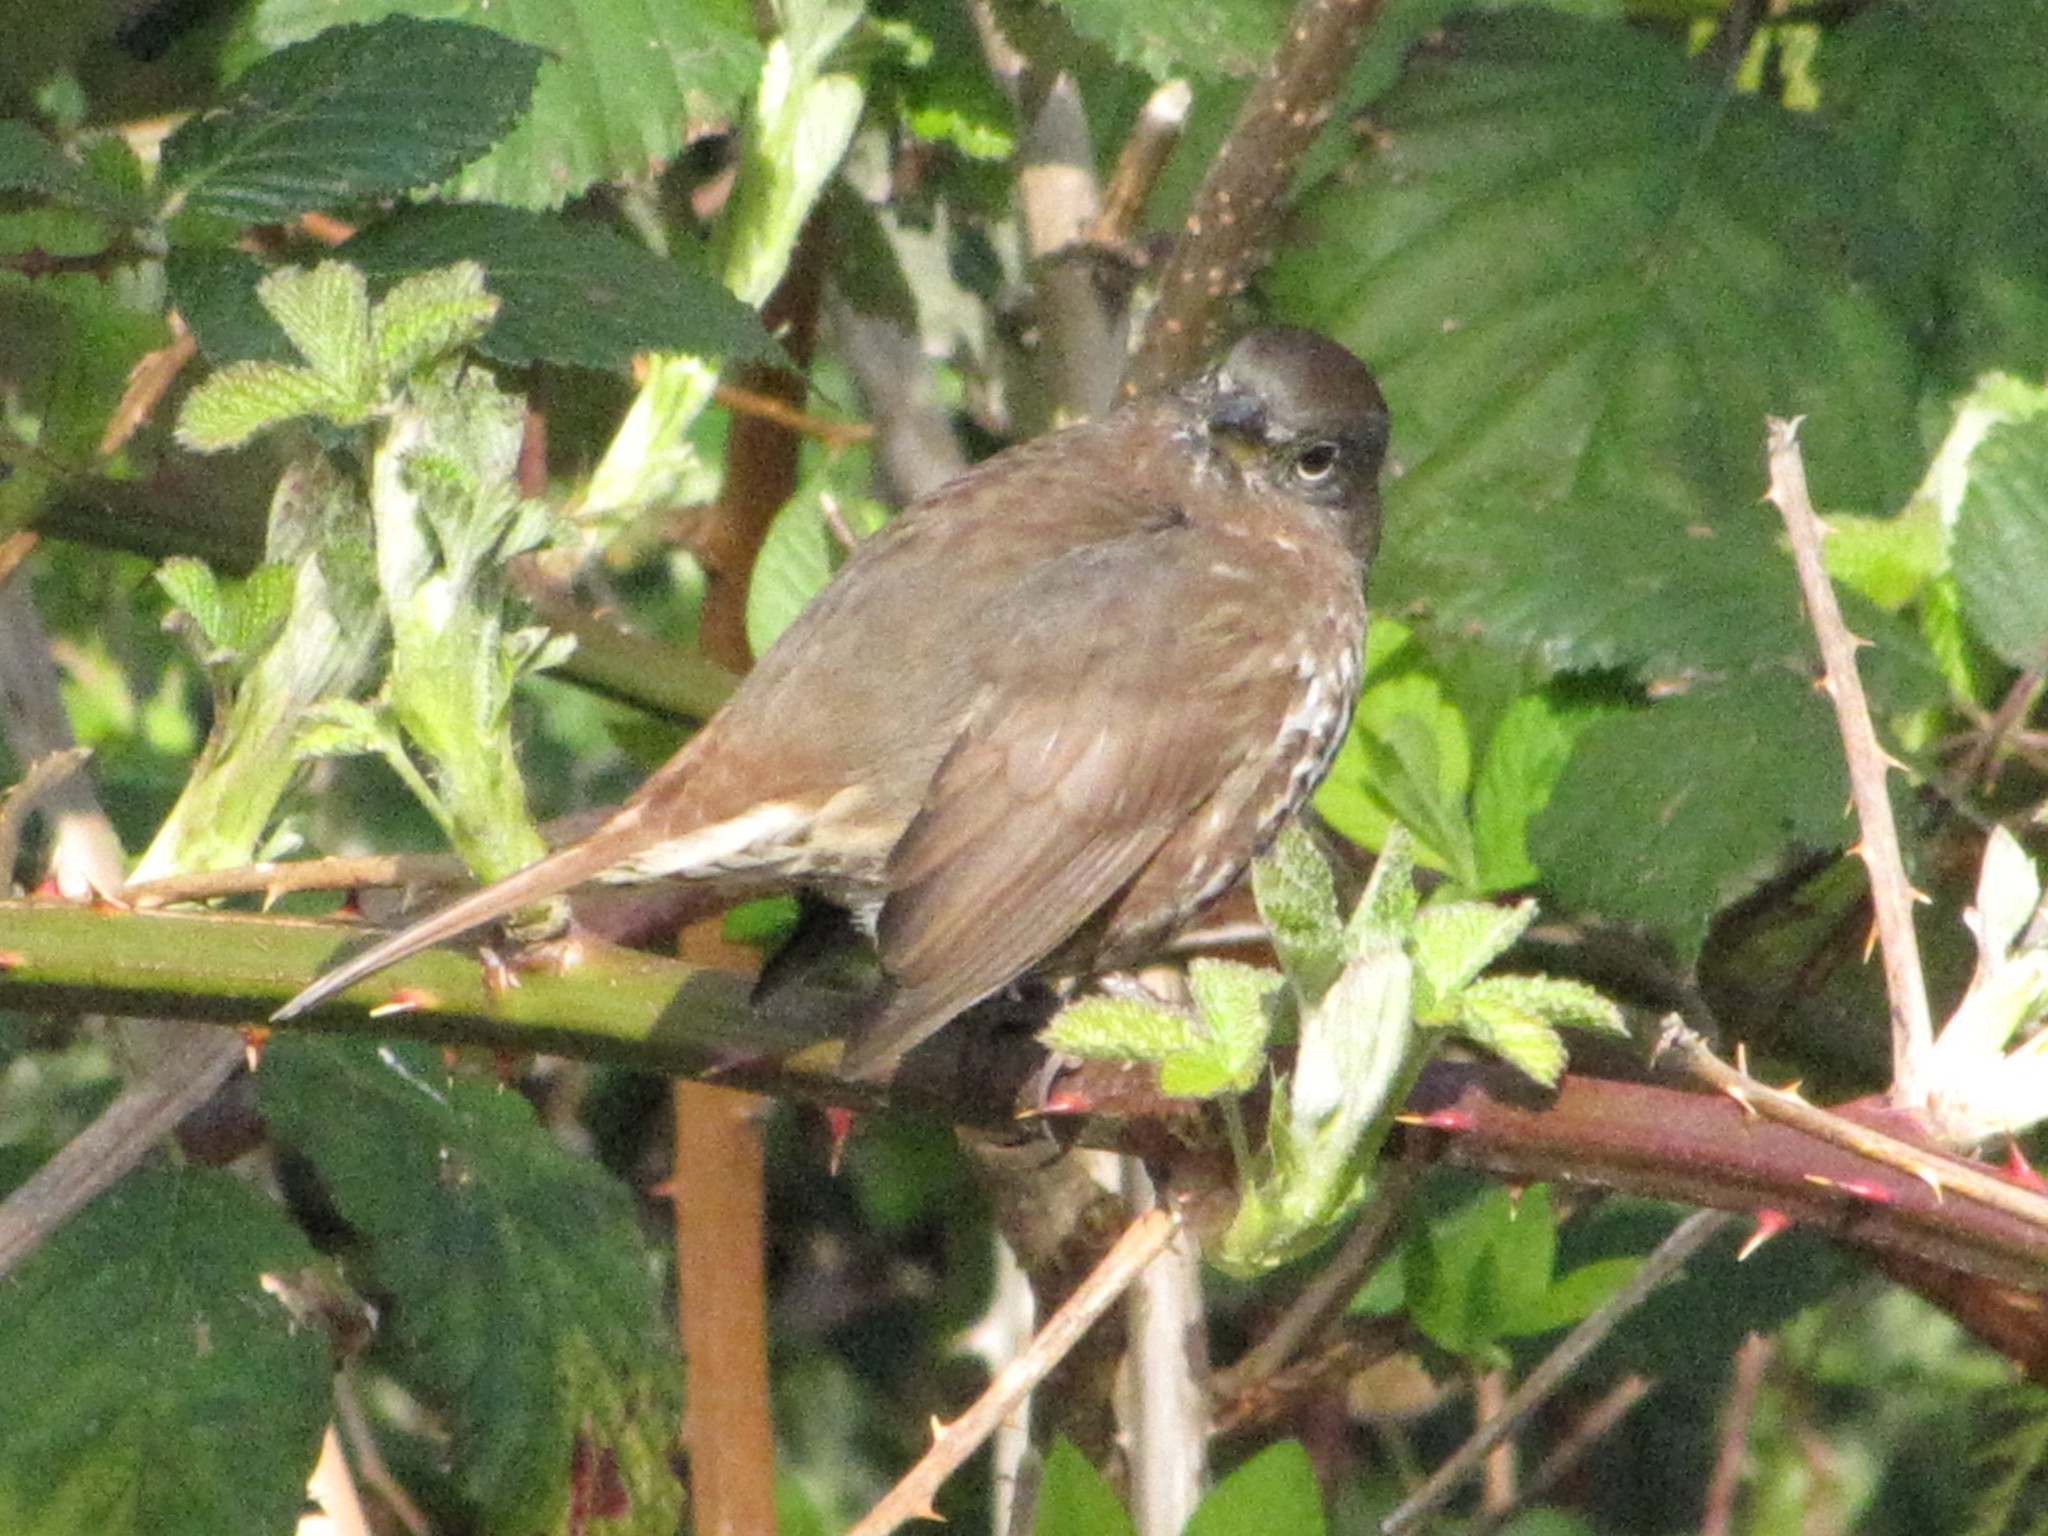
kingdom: Animalia
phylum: Chordata
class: Aves
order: Passeriformes
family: Passerellidae
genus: Passerella
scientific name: Passerella iliaca
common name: Fox sparrow
